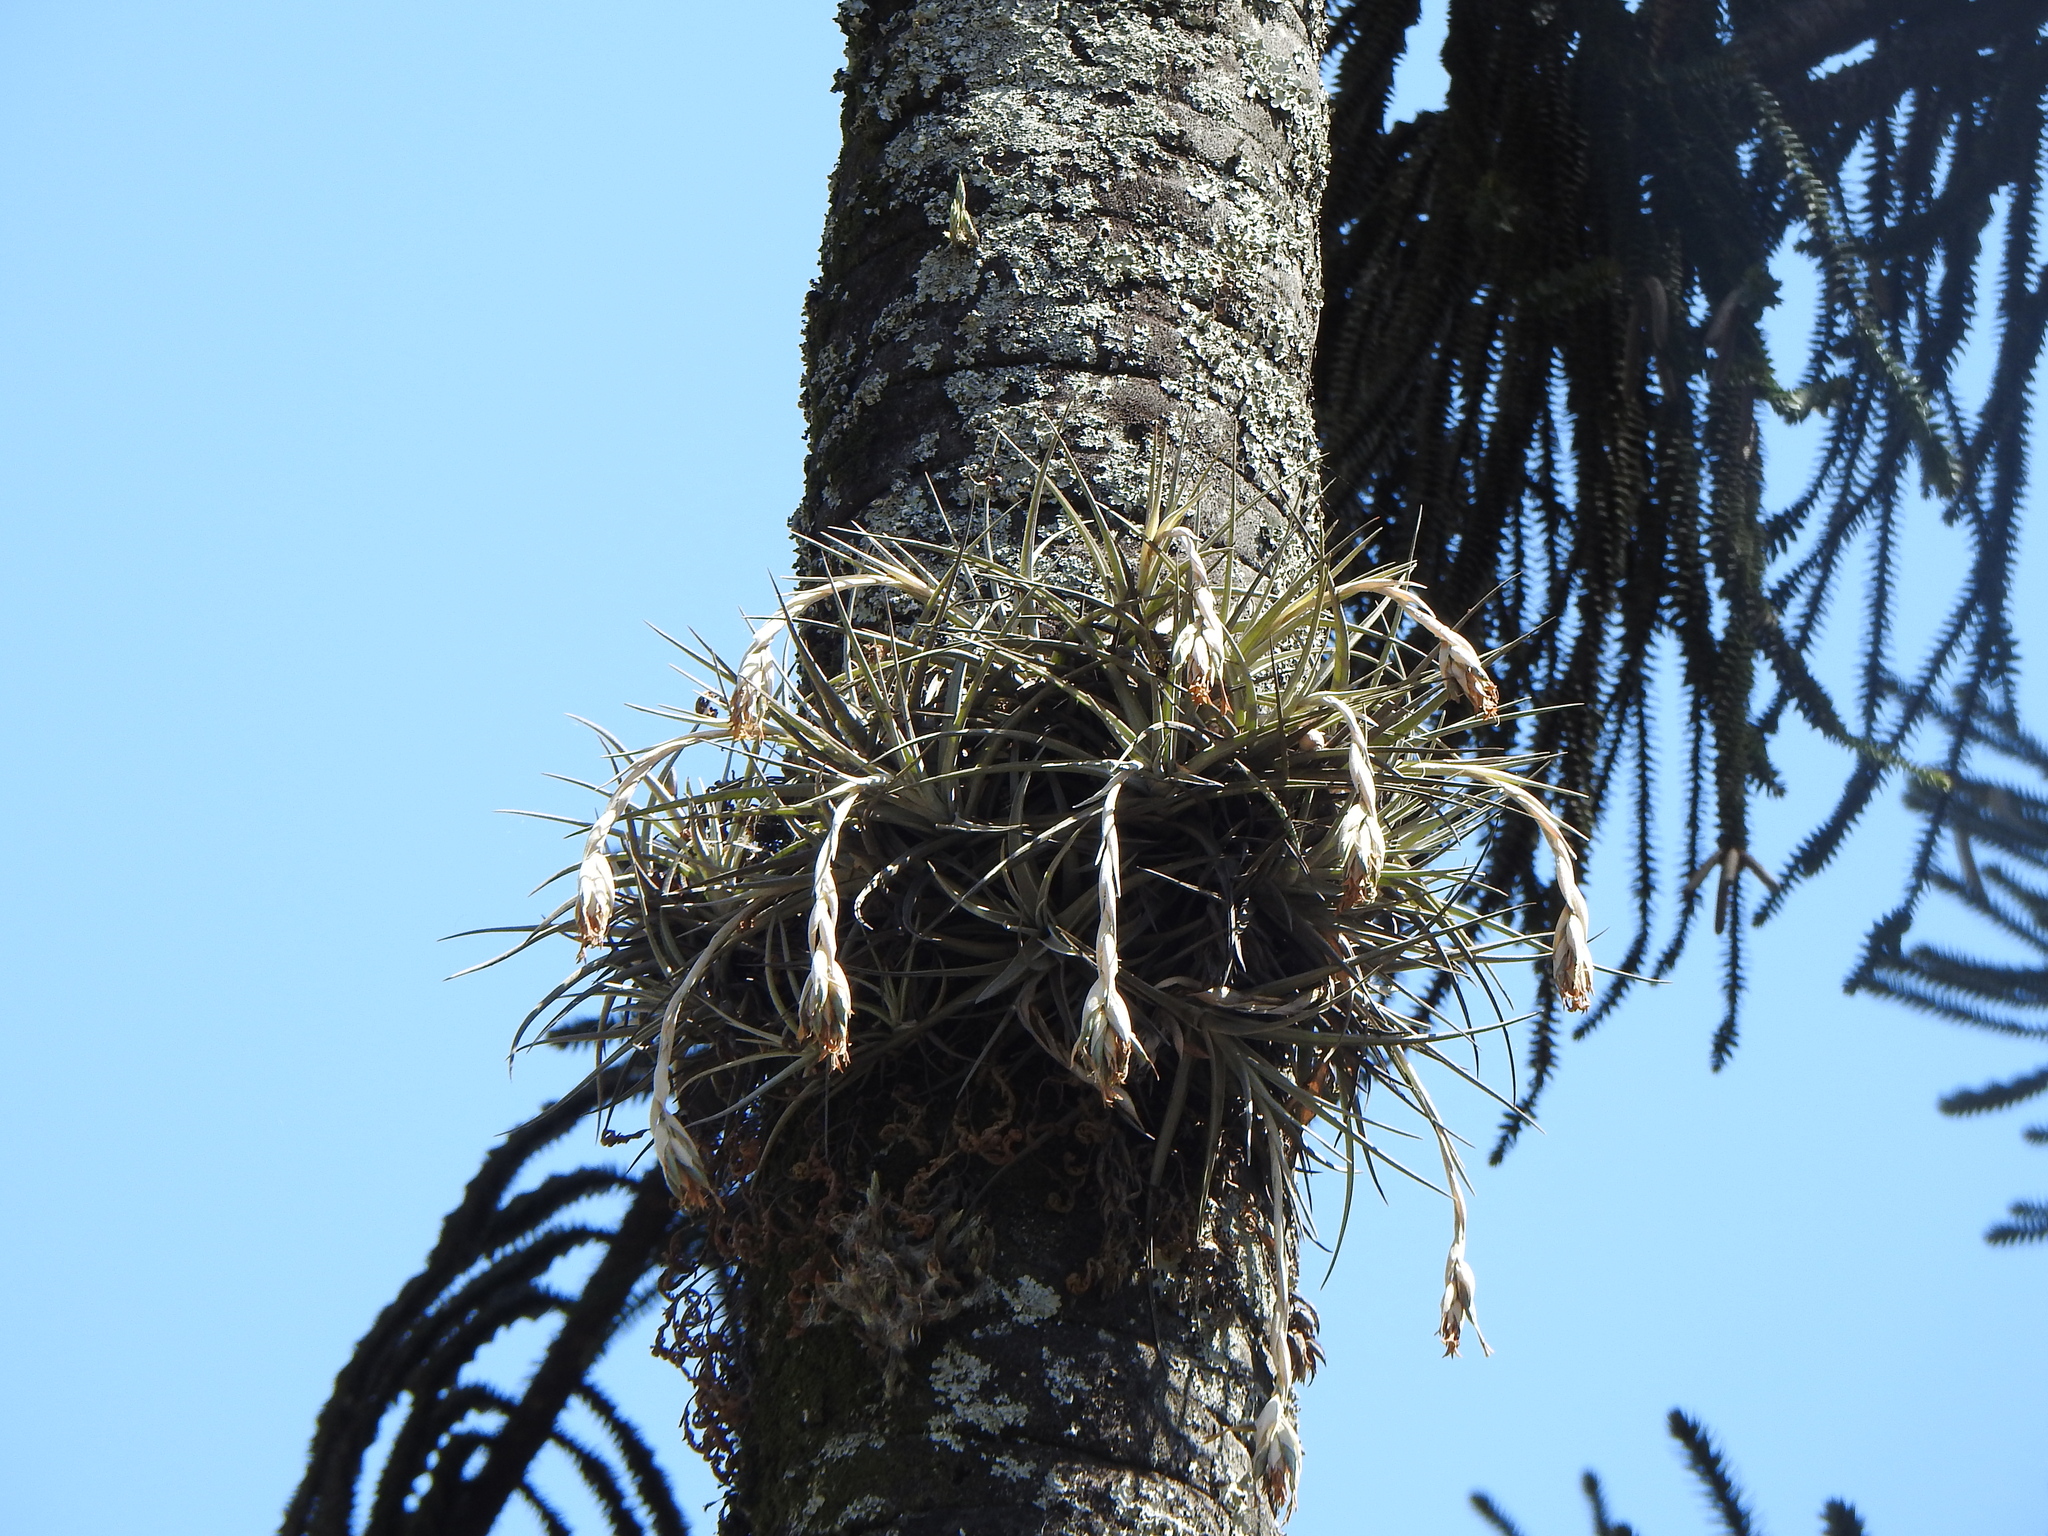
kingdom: Plantae
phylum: Tracheophyta
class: Liliopsida
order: Poales
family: Bromeliaceae
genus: Tillandsia
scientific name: Tillandsia ixioides
